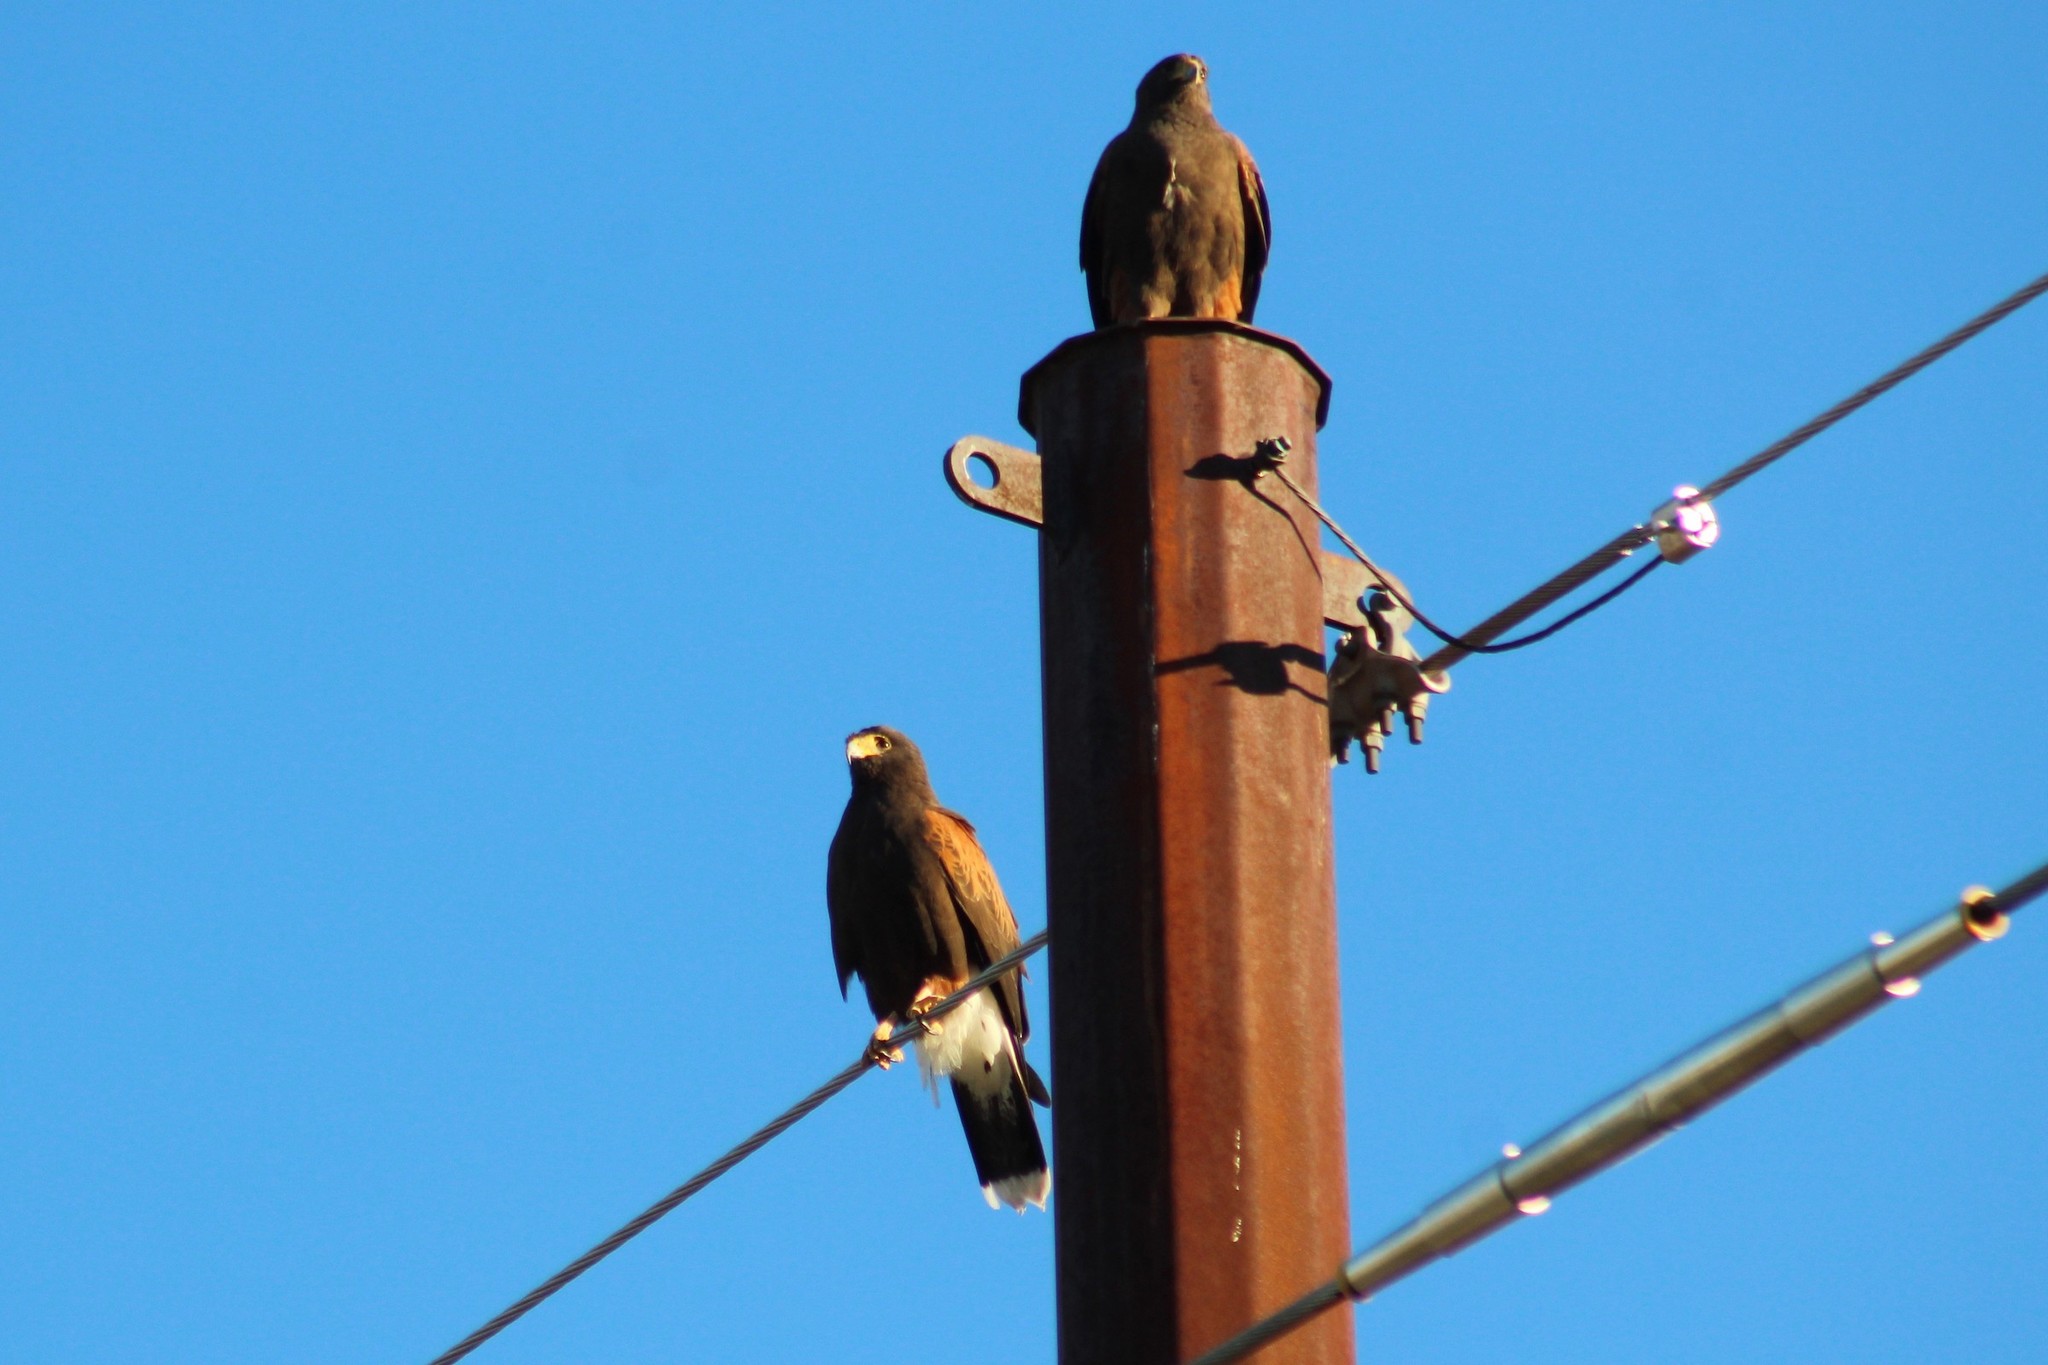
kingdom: Animalia
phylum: Chordata
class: Aves
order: Accipitriformes
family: Accipitridae
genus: Parabuteo
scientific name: Parabuteo unicinctus
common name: Harris's hawk
